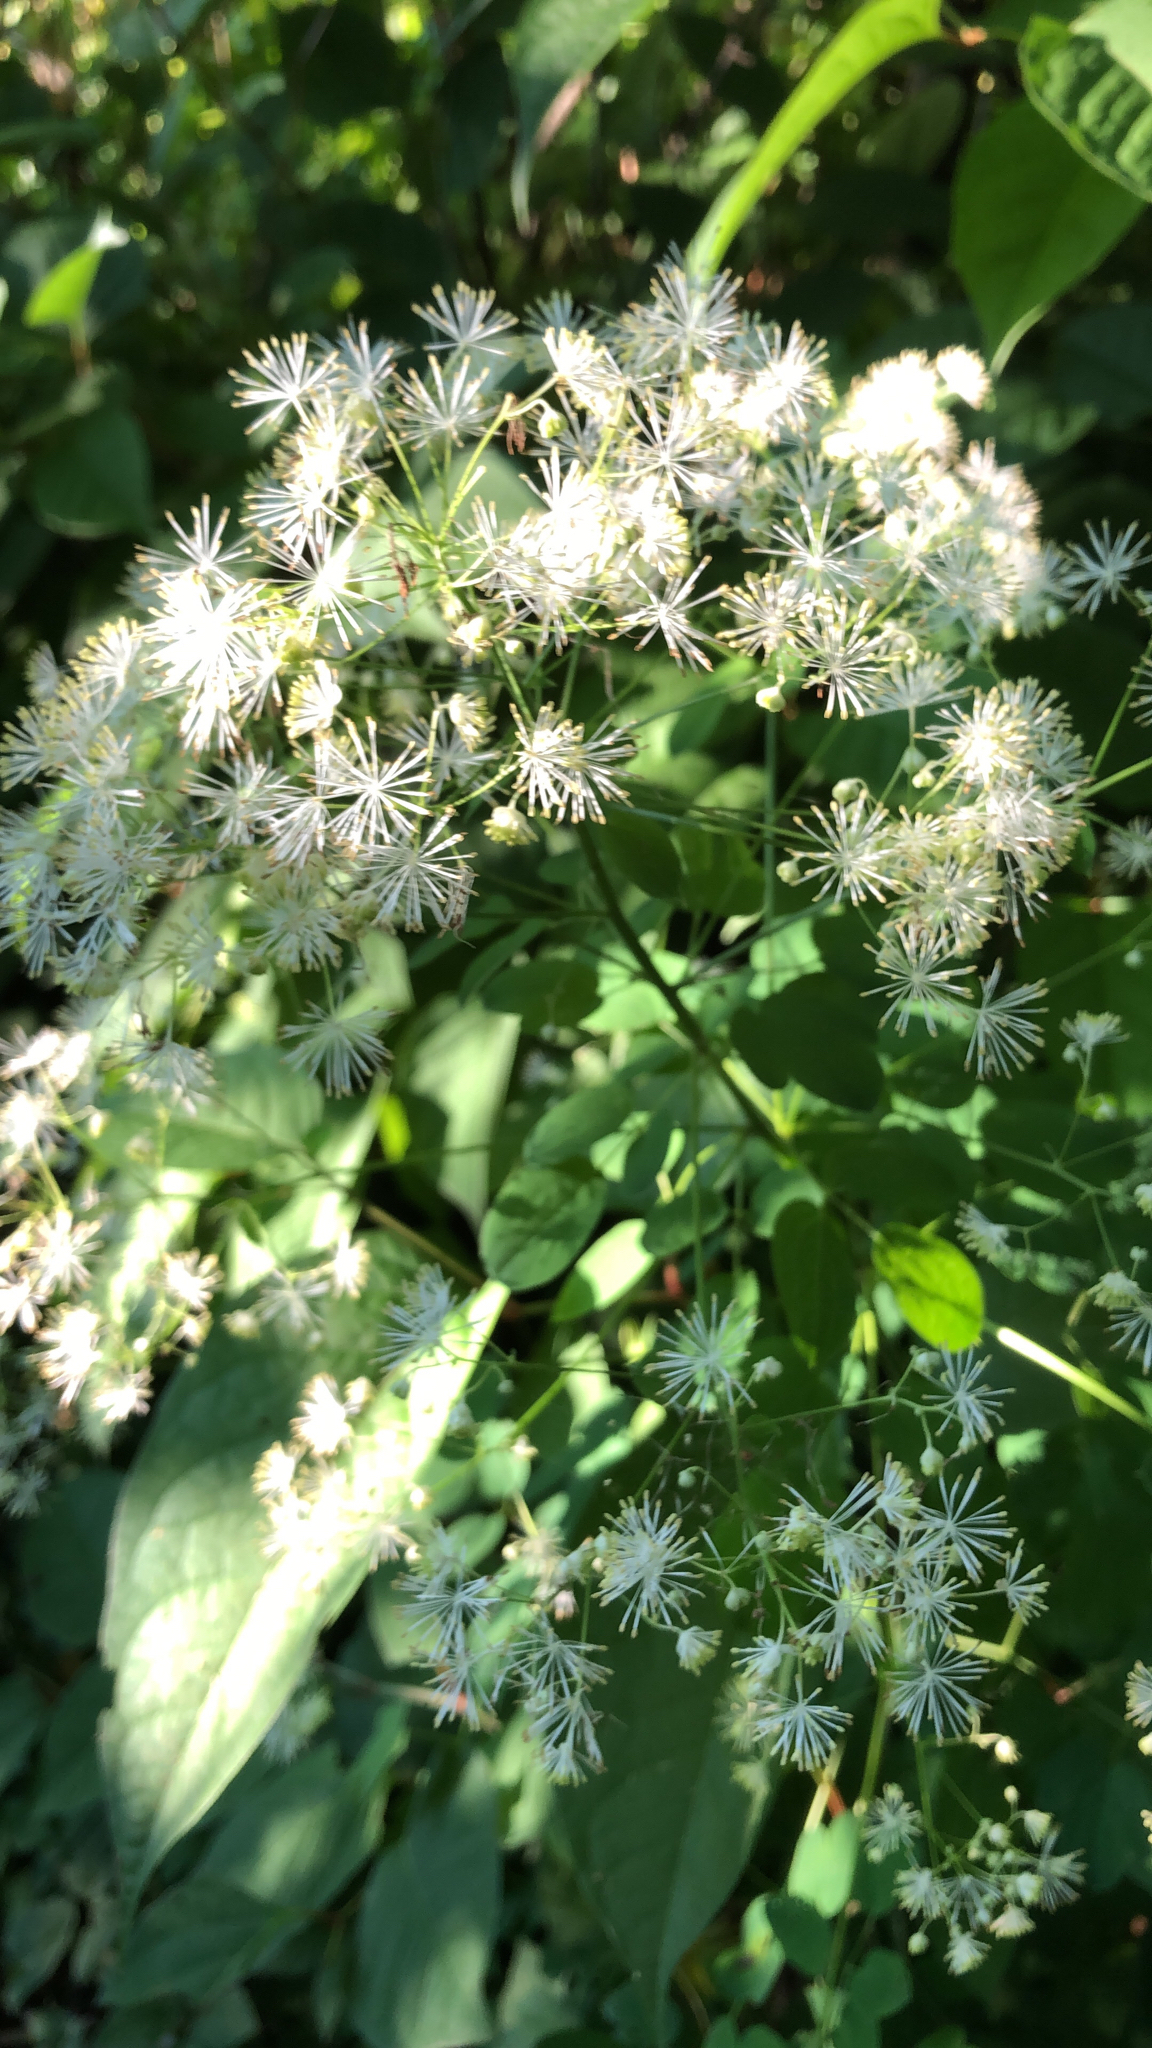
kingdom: Plantae
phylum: Tracheophyta
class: Magnoliopsida
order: Ranunculales
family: Ranunculaceae
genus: Thalictrum
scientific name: Thalictrum pubescens
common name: King-of-the-meadow
